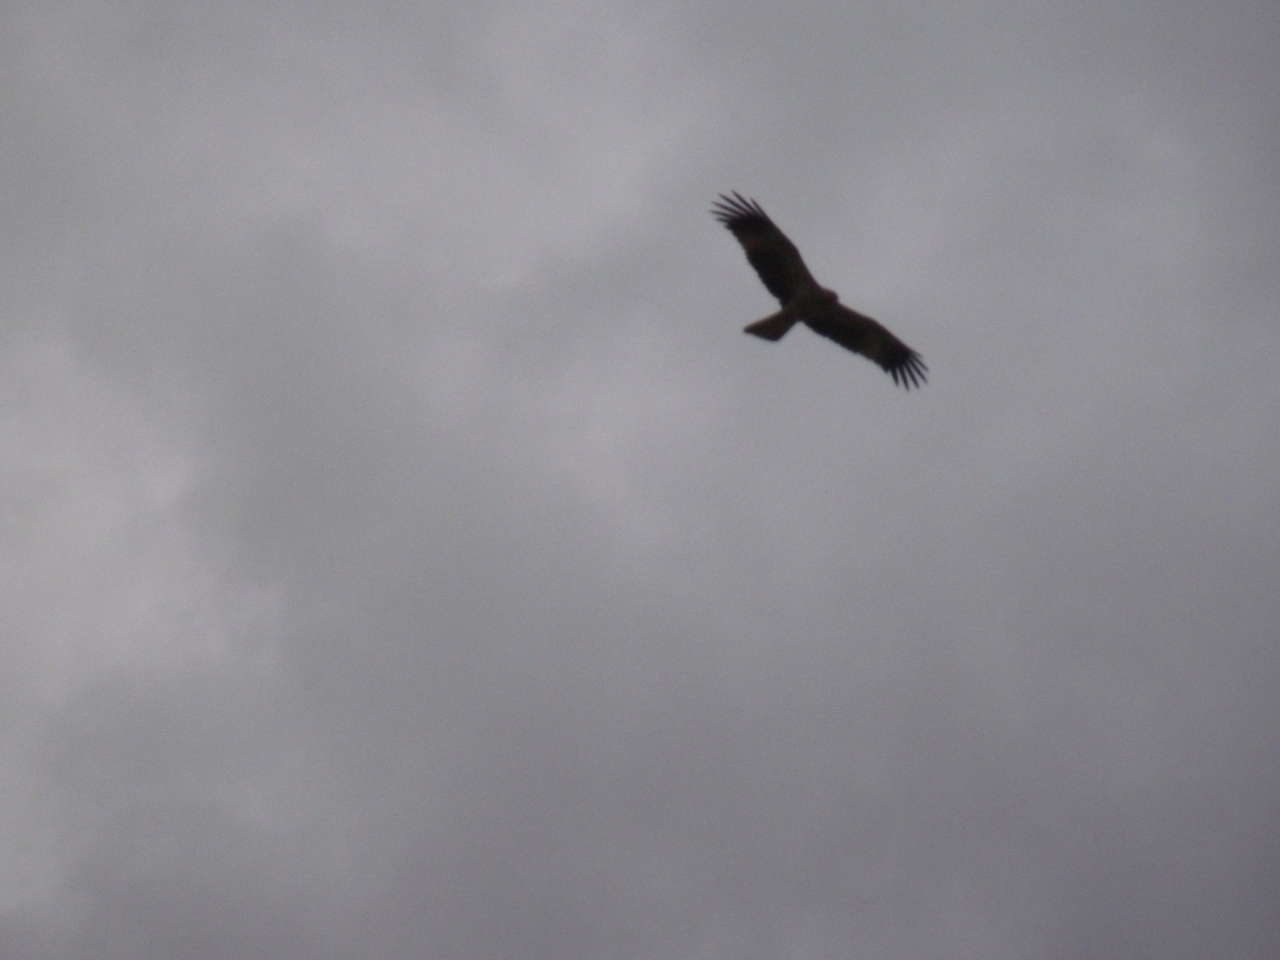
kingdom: Animalia
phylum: Chordata
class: Aves
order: Accipitriformes
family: Accipitridae
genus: Haliastur
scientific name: Haliastur sphenurus
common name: Whistling kite
